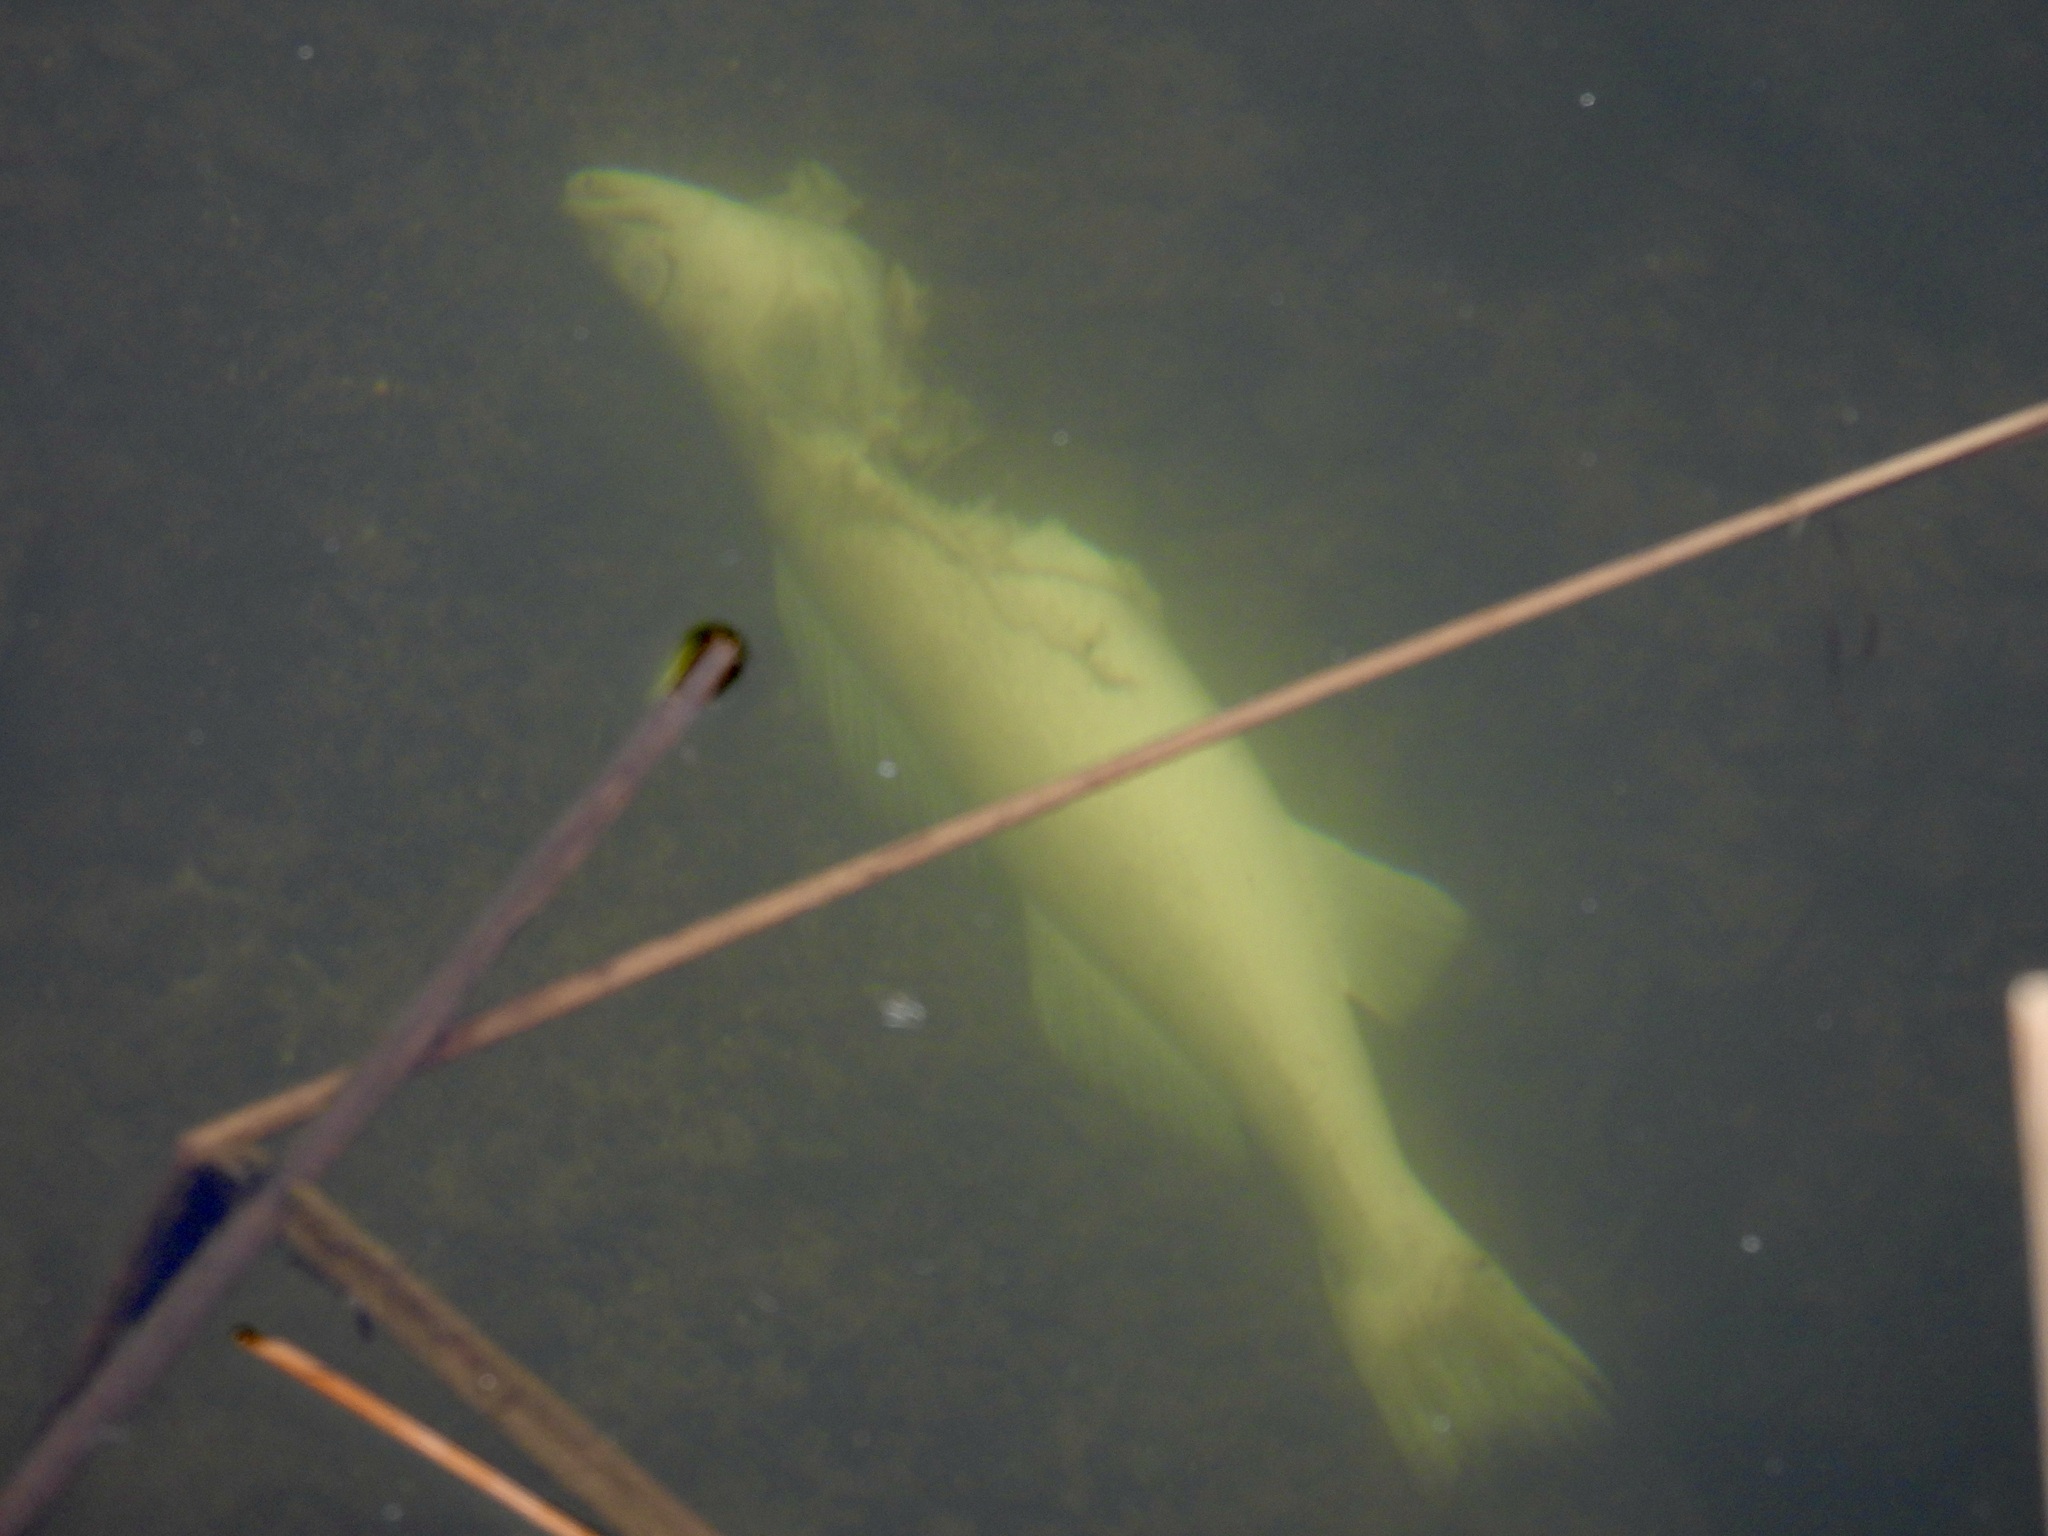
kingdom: Animalia
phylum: Chordata
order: Perciformes
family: Percidae
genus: Sander
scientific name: Sander vitreus
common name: Walleye
